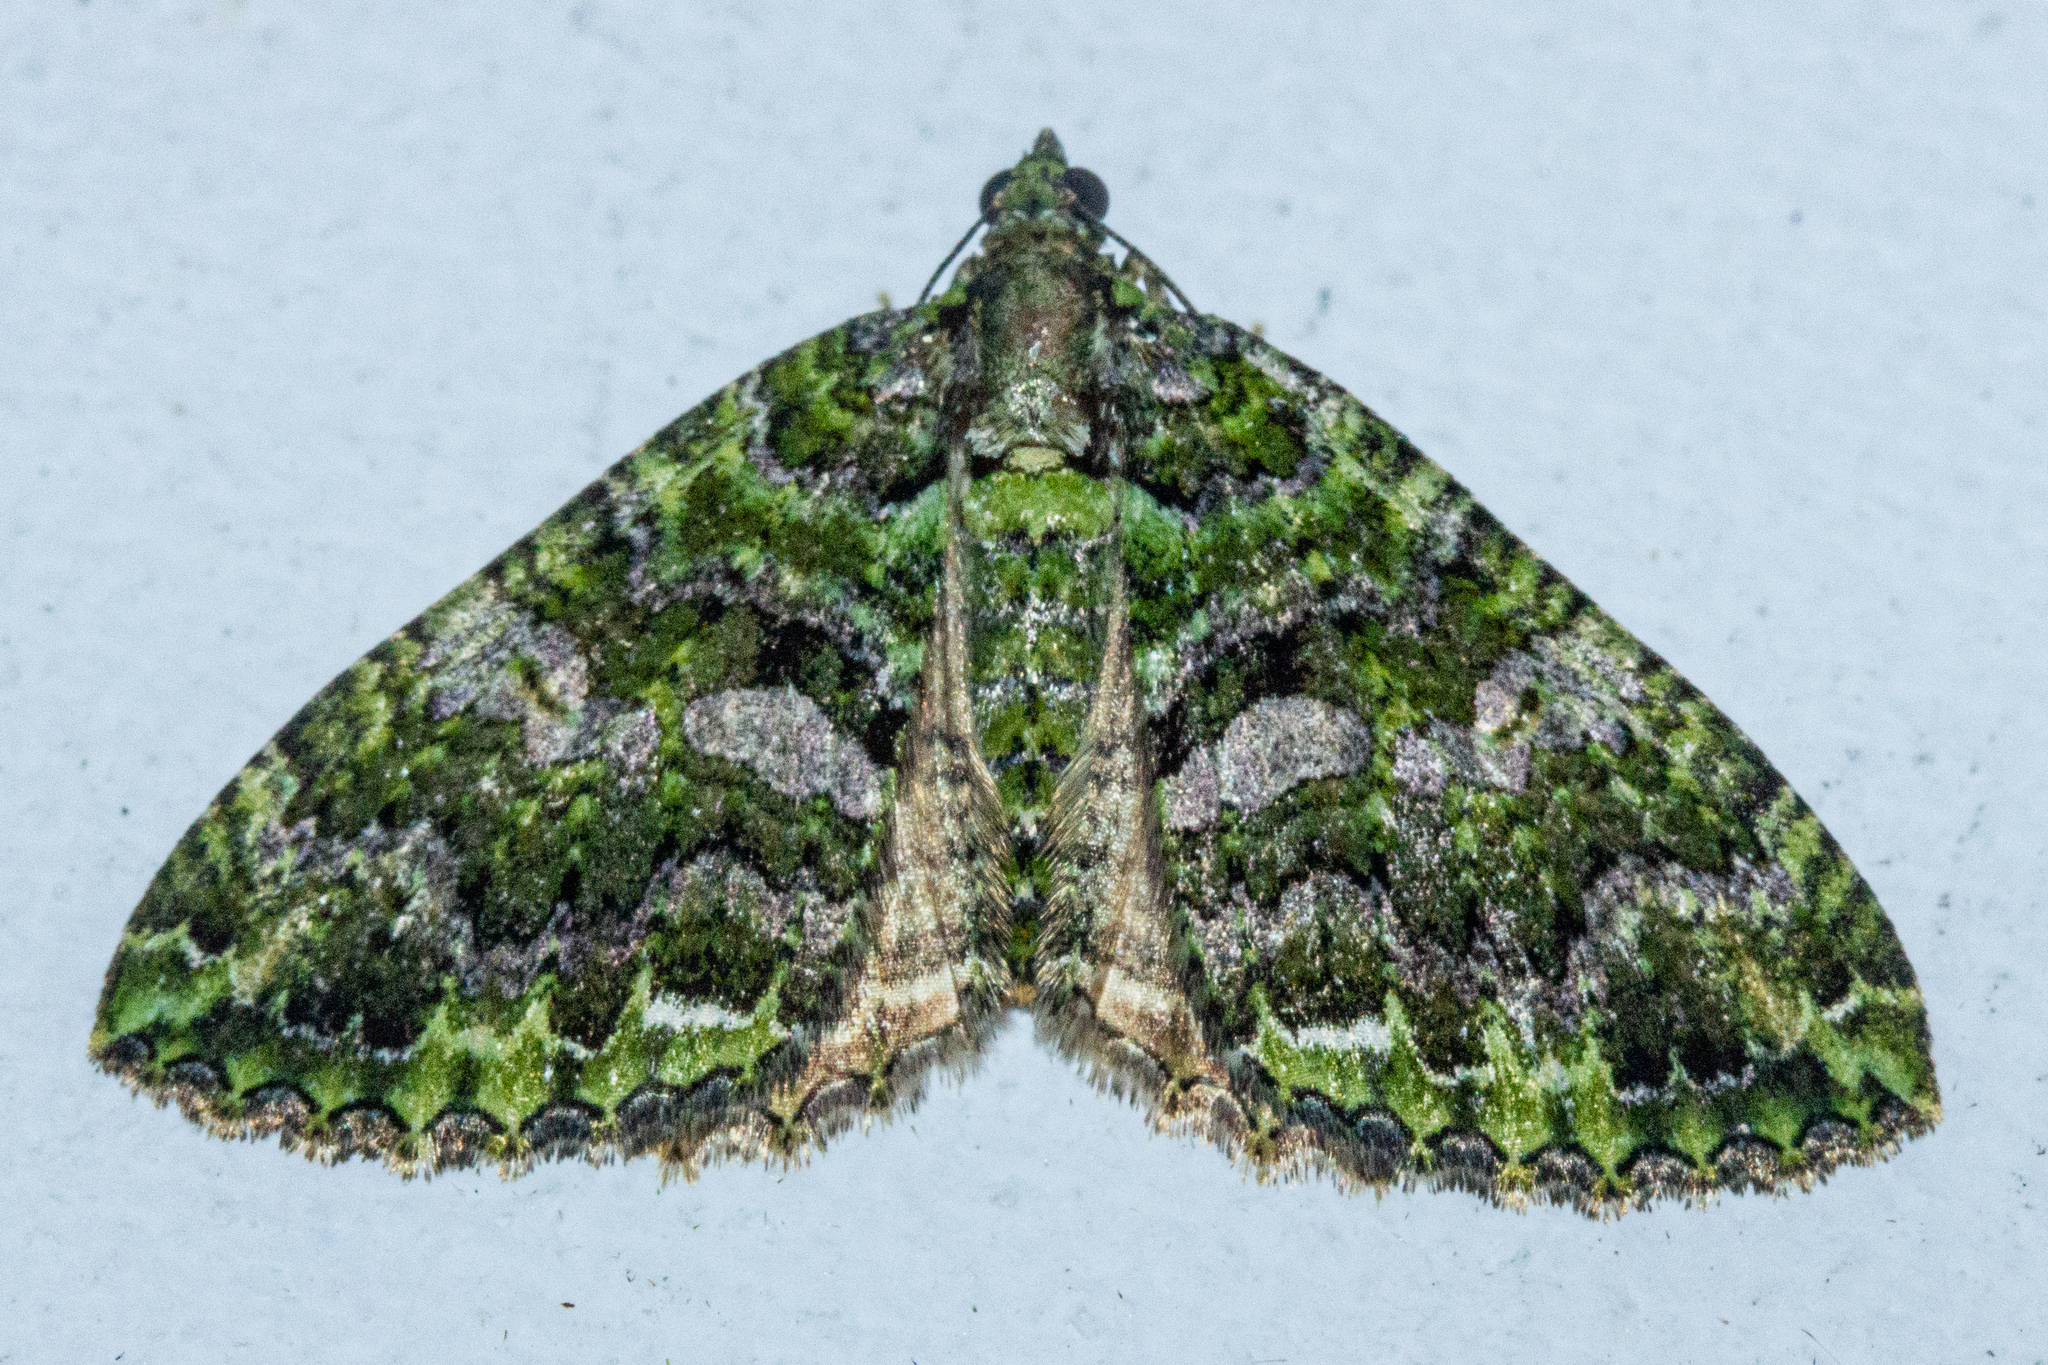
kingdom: Animalia
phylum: Arthropoda
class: Insecta
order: Lepidoptera
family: Geometridae
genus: Austrocidaria
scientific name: Austrocidaria similata
